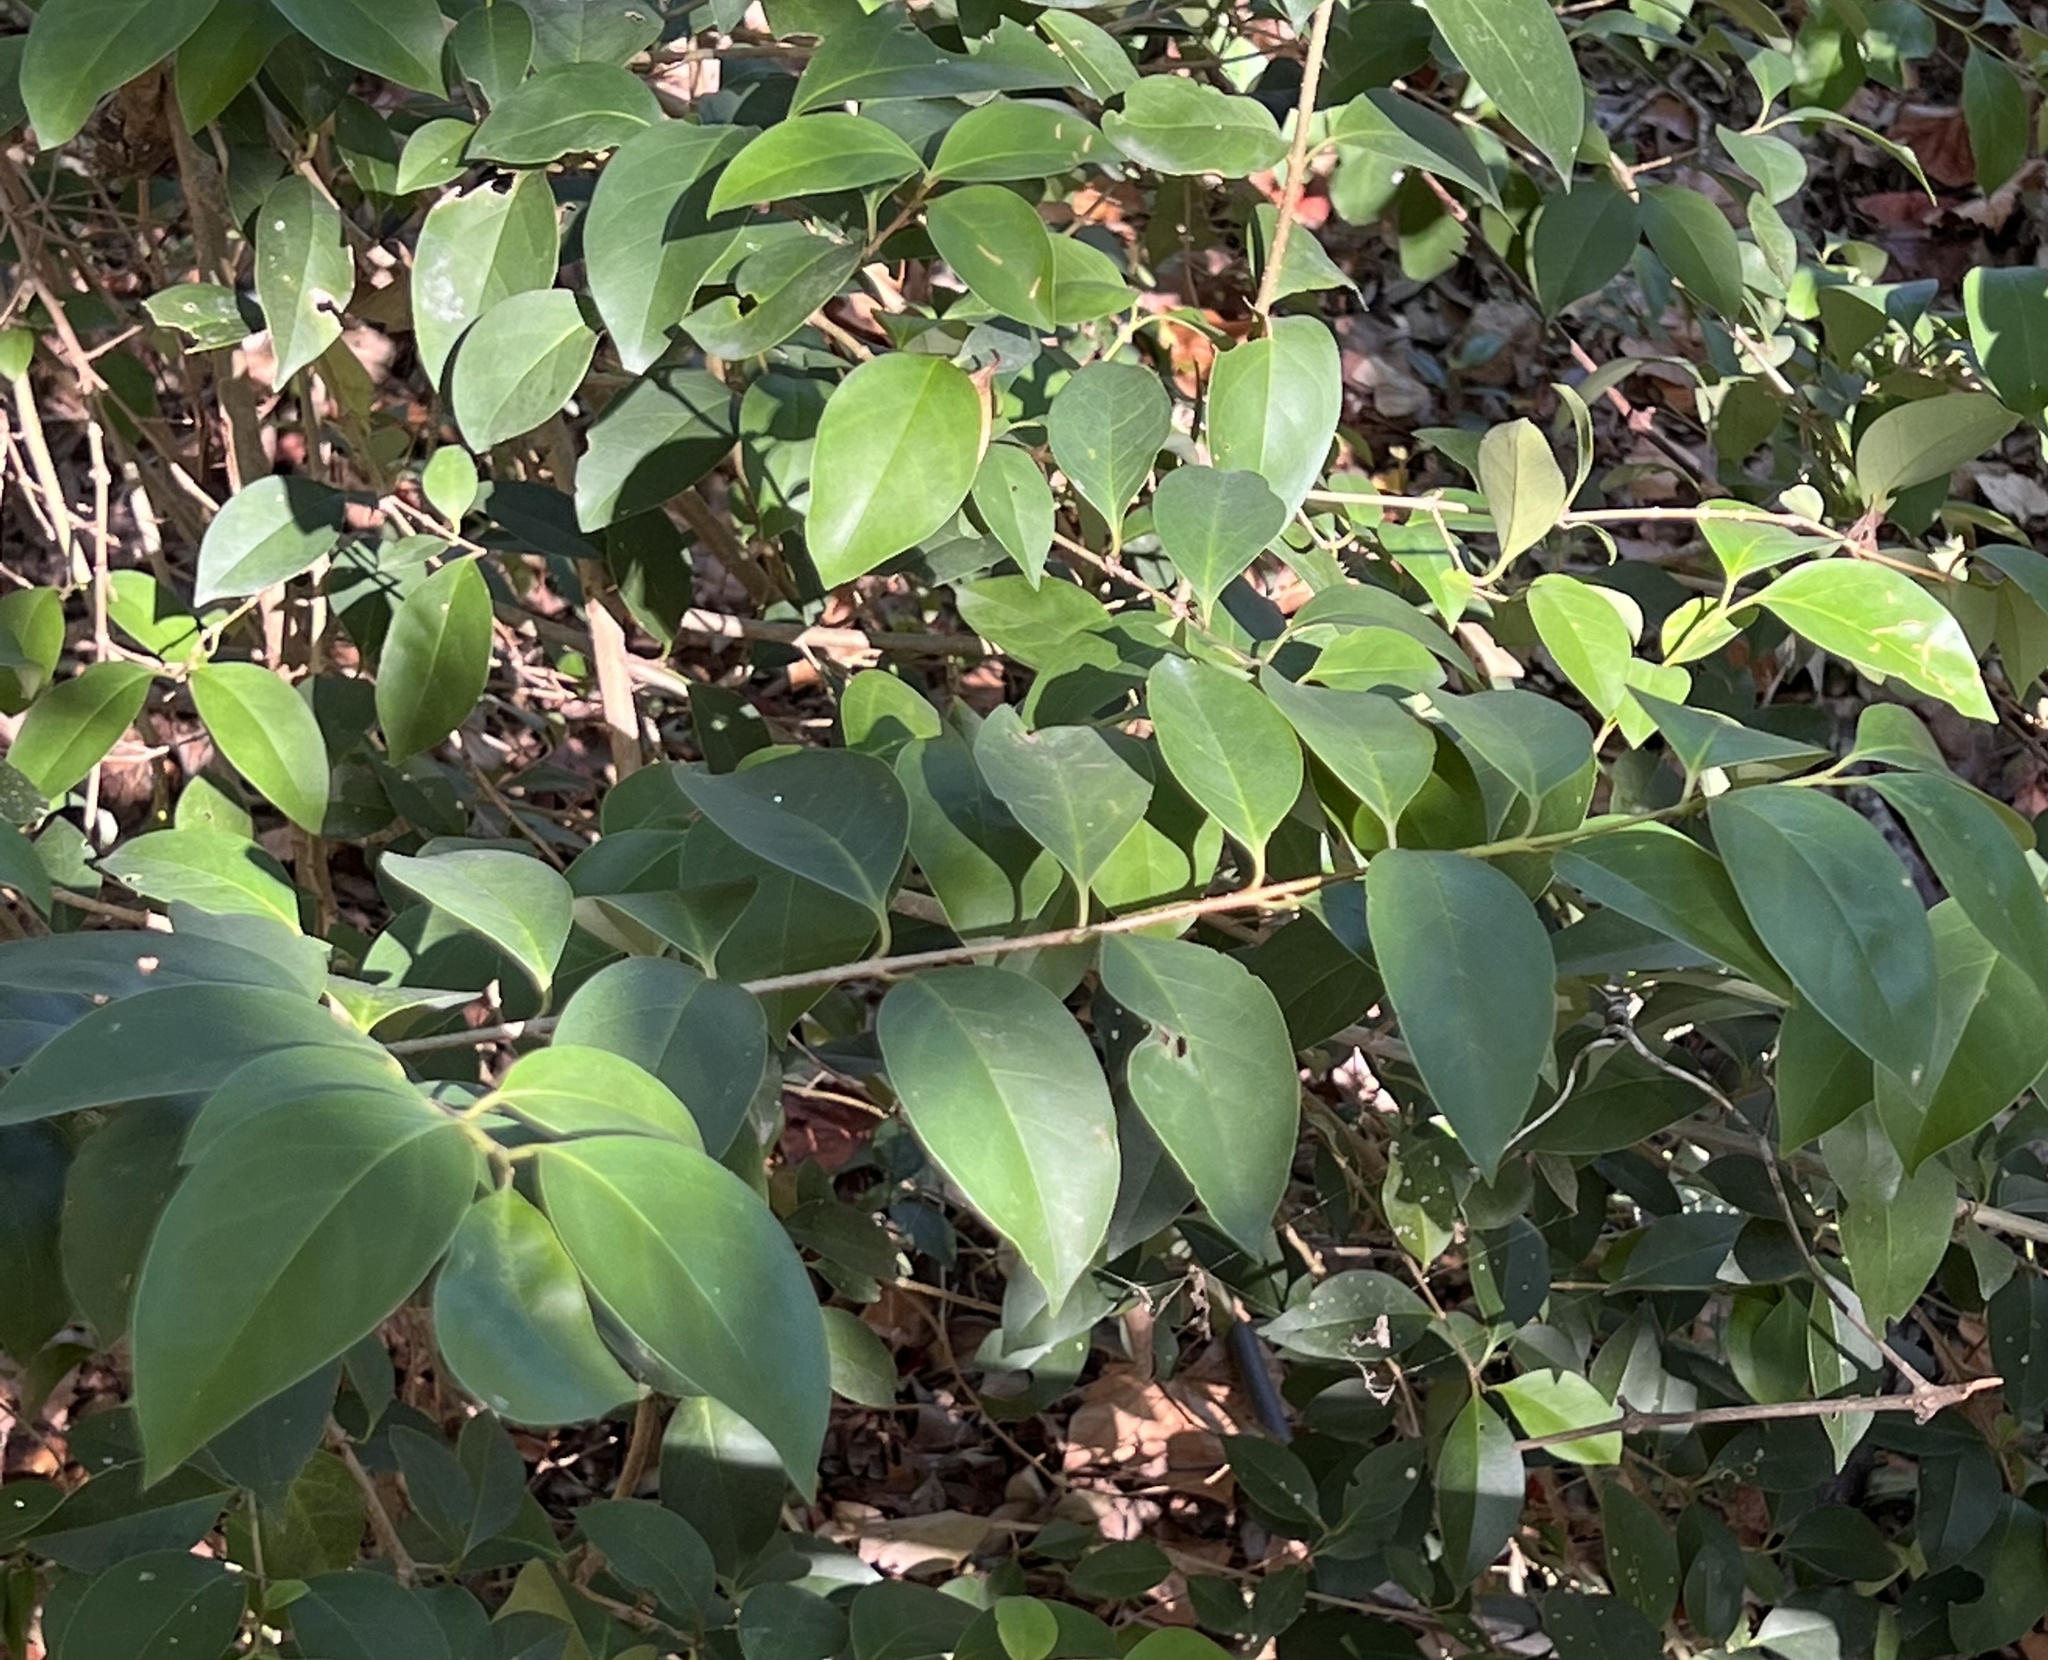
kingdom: Plantae
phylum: Tracheophyta
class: Magnoliopsida
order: Lamiales
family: Oleaceae
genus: Ligustrum
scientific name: Ligustrum lucidum
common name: Glossy privet
